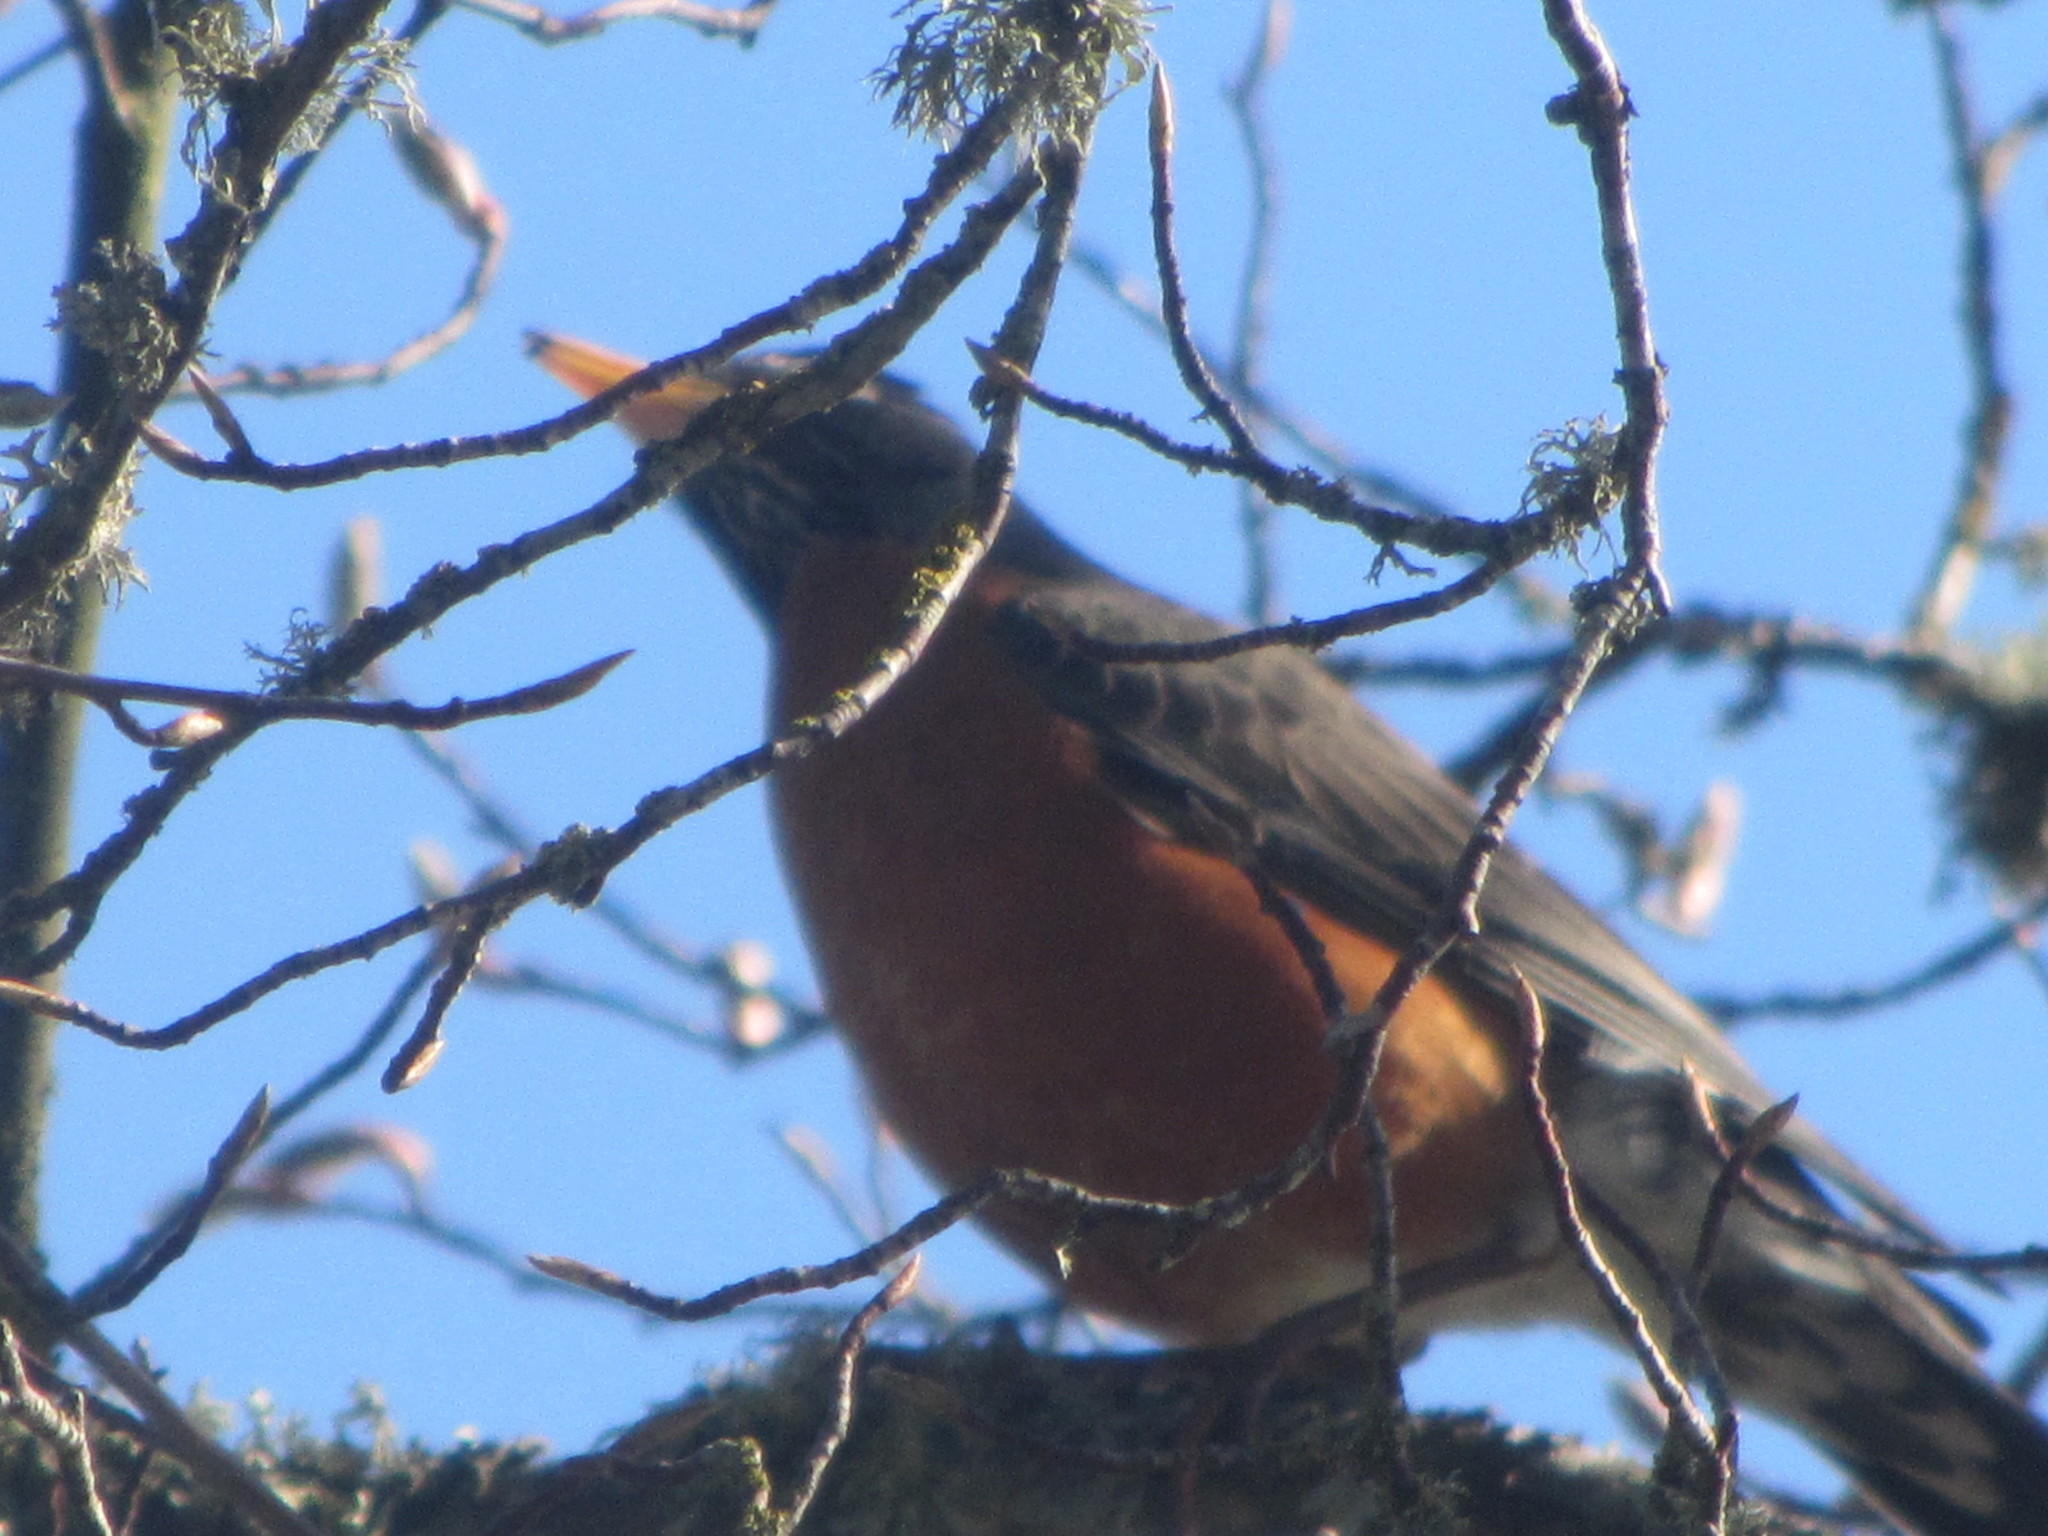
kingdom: Animalia
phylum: Chordata
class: Aves
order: Passeriformes
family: Turdidae
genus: Turdus
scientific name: Turdus migratorius
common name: American robin
